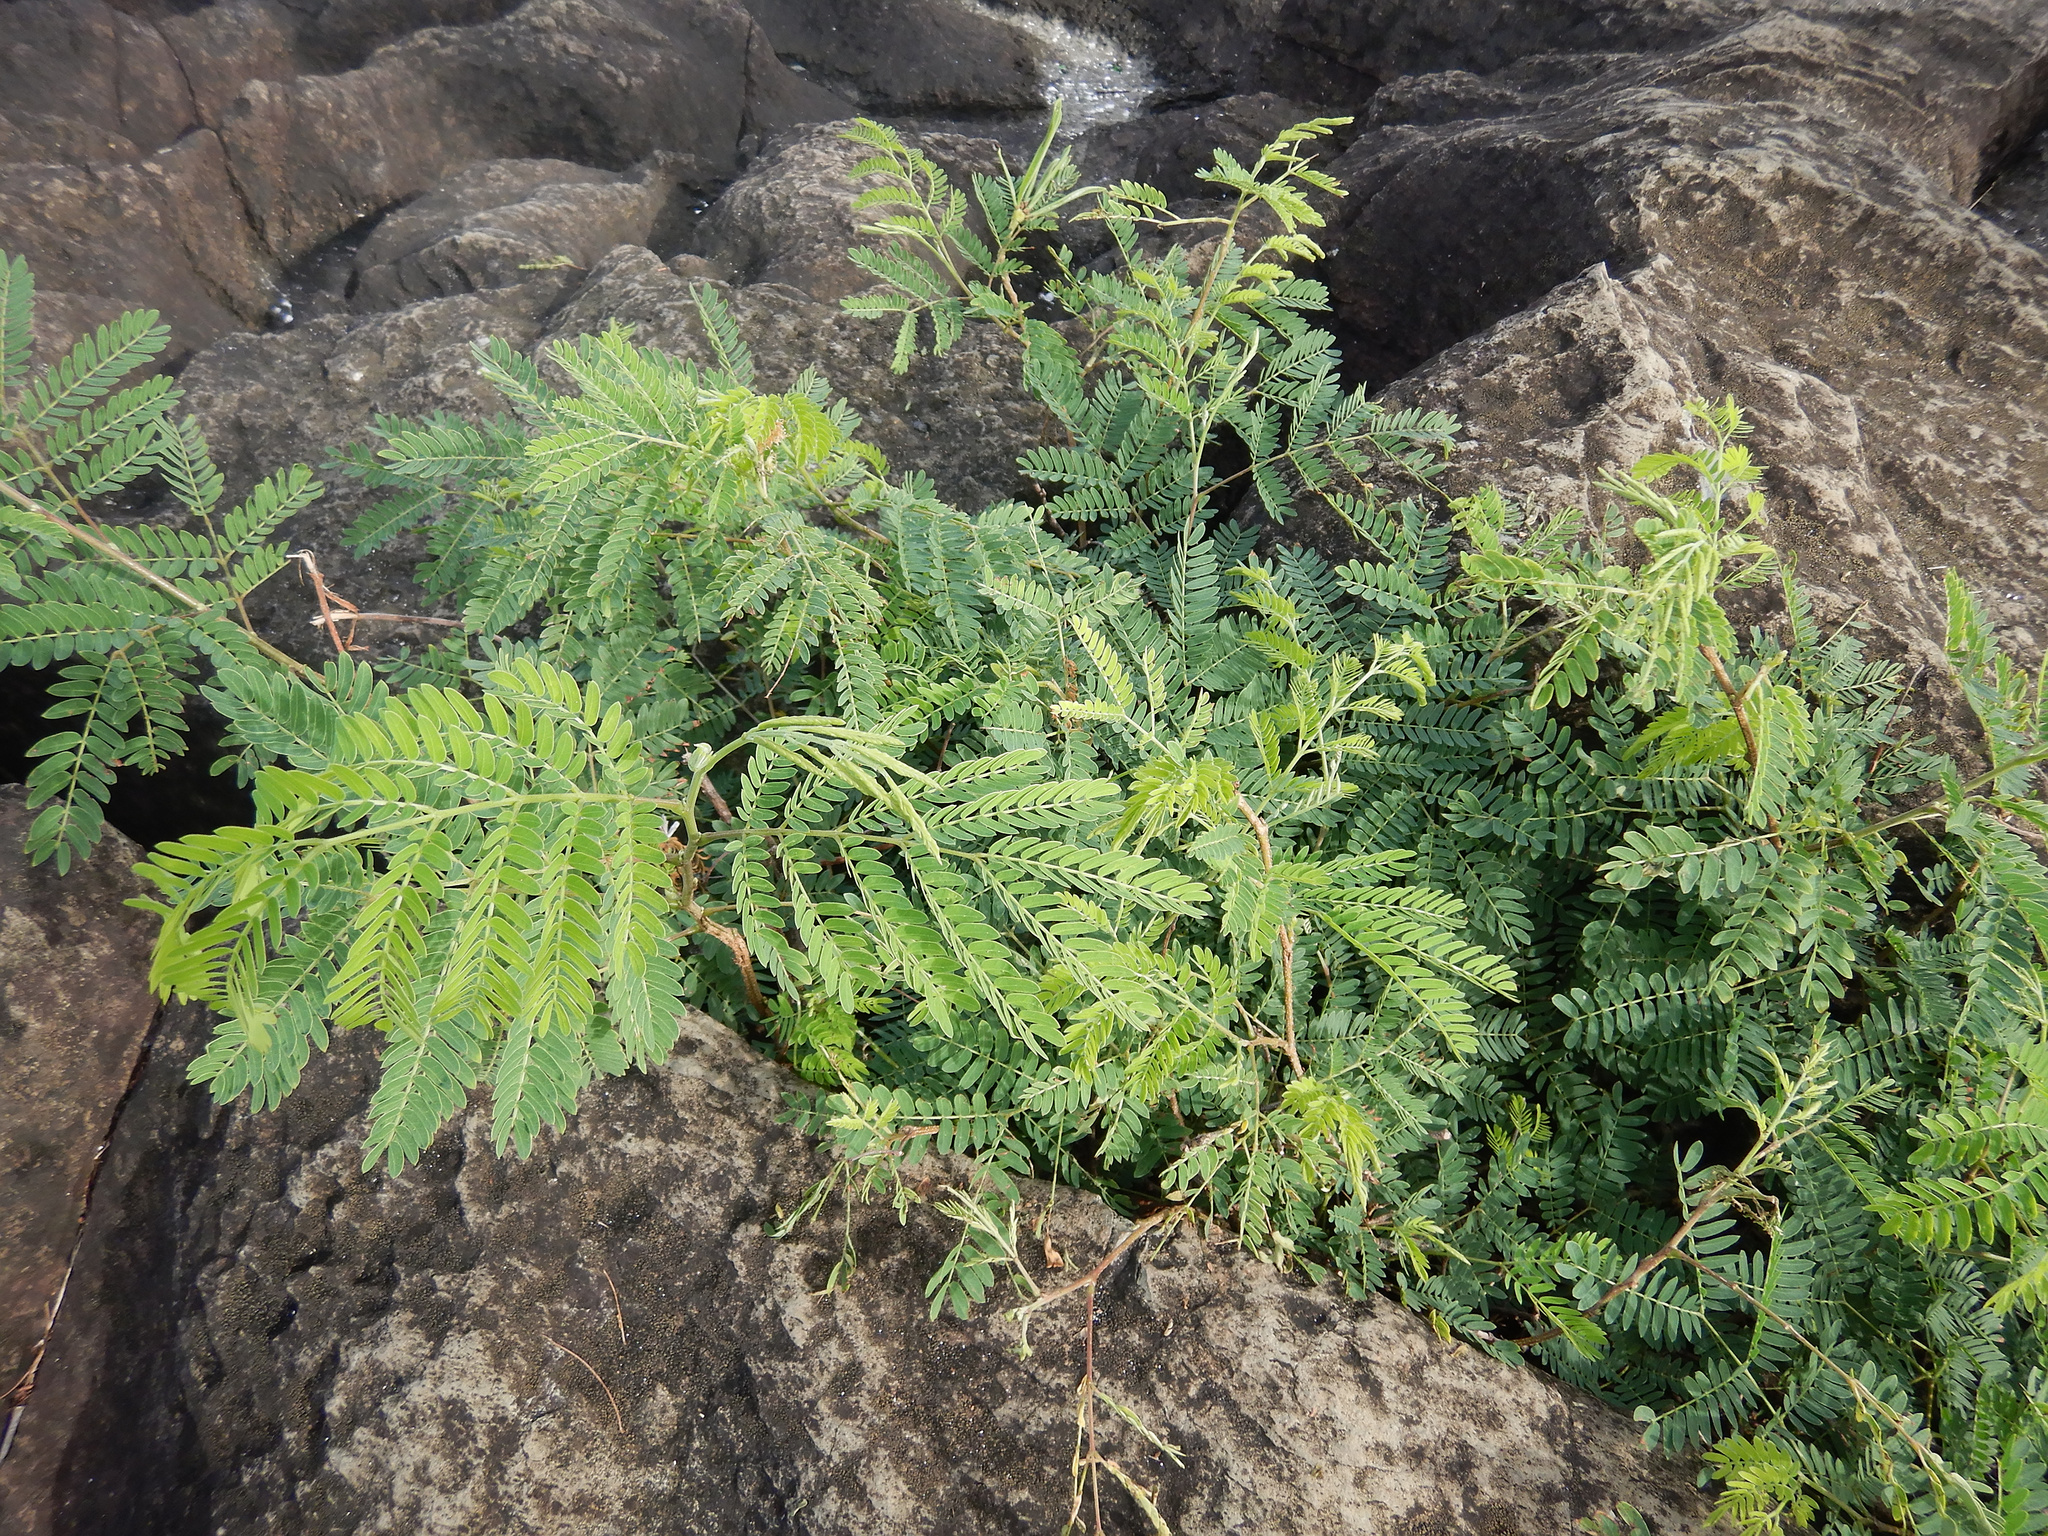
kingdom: Plantae
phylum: Tracheophyta
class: Magnoliopsida
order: Fabales
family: Fabaceae
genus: Leucaena
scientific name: Leucaena leucocephala
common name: White leadtree
